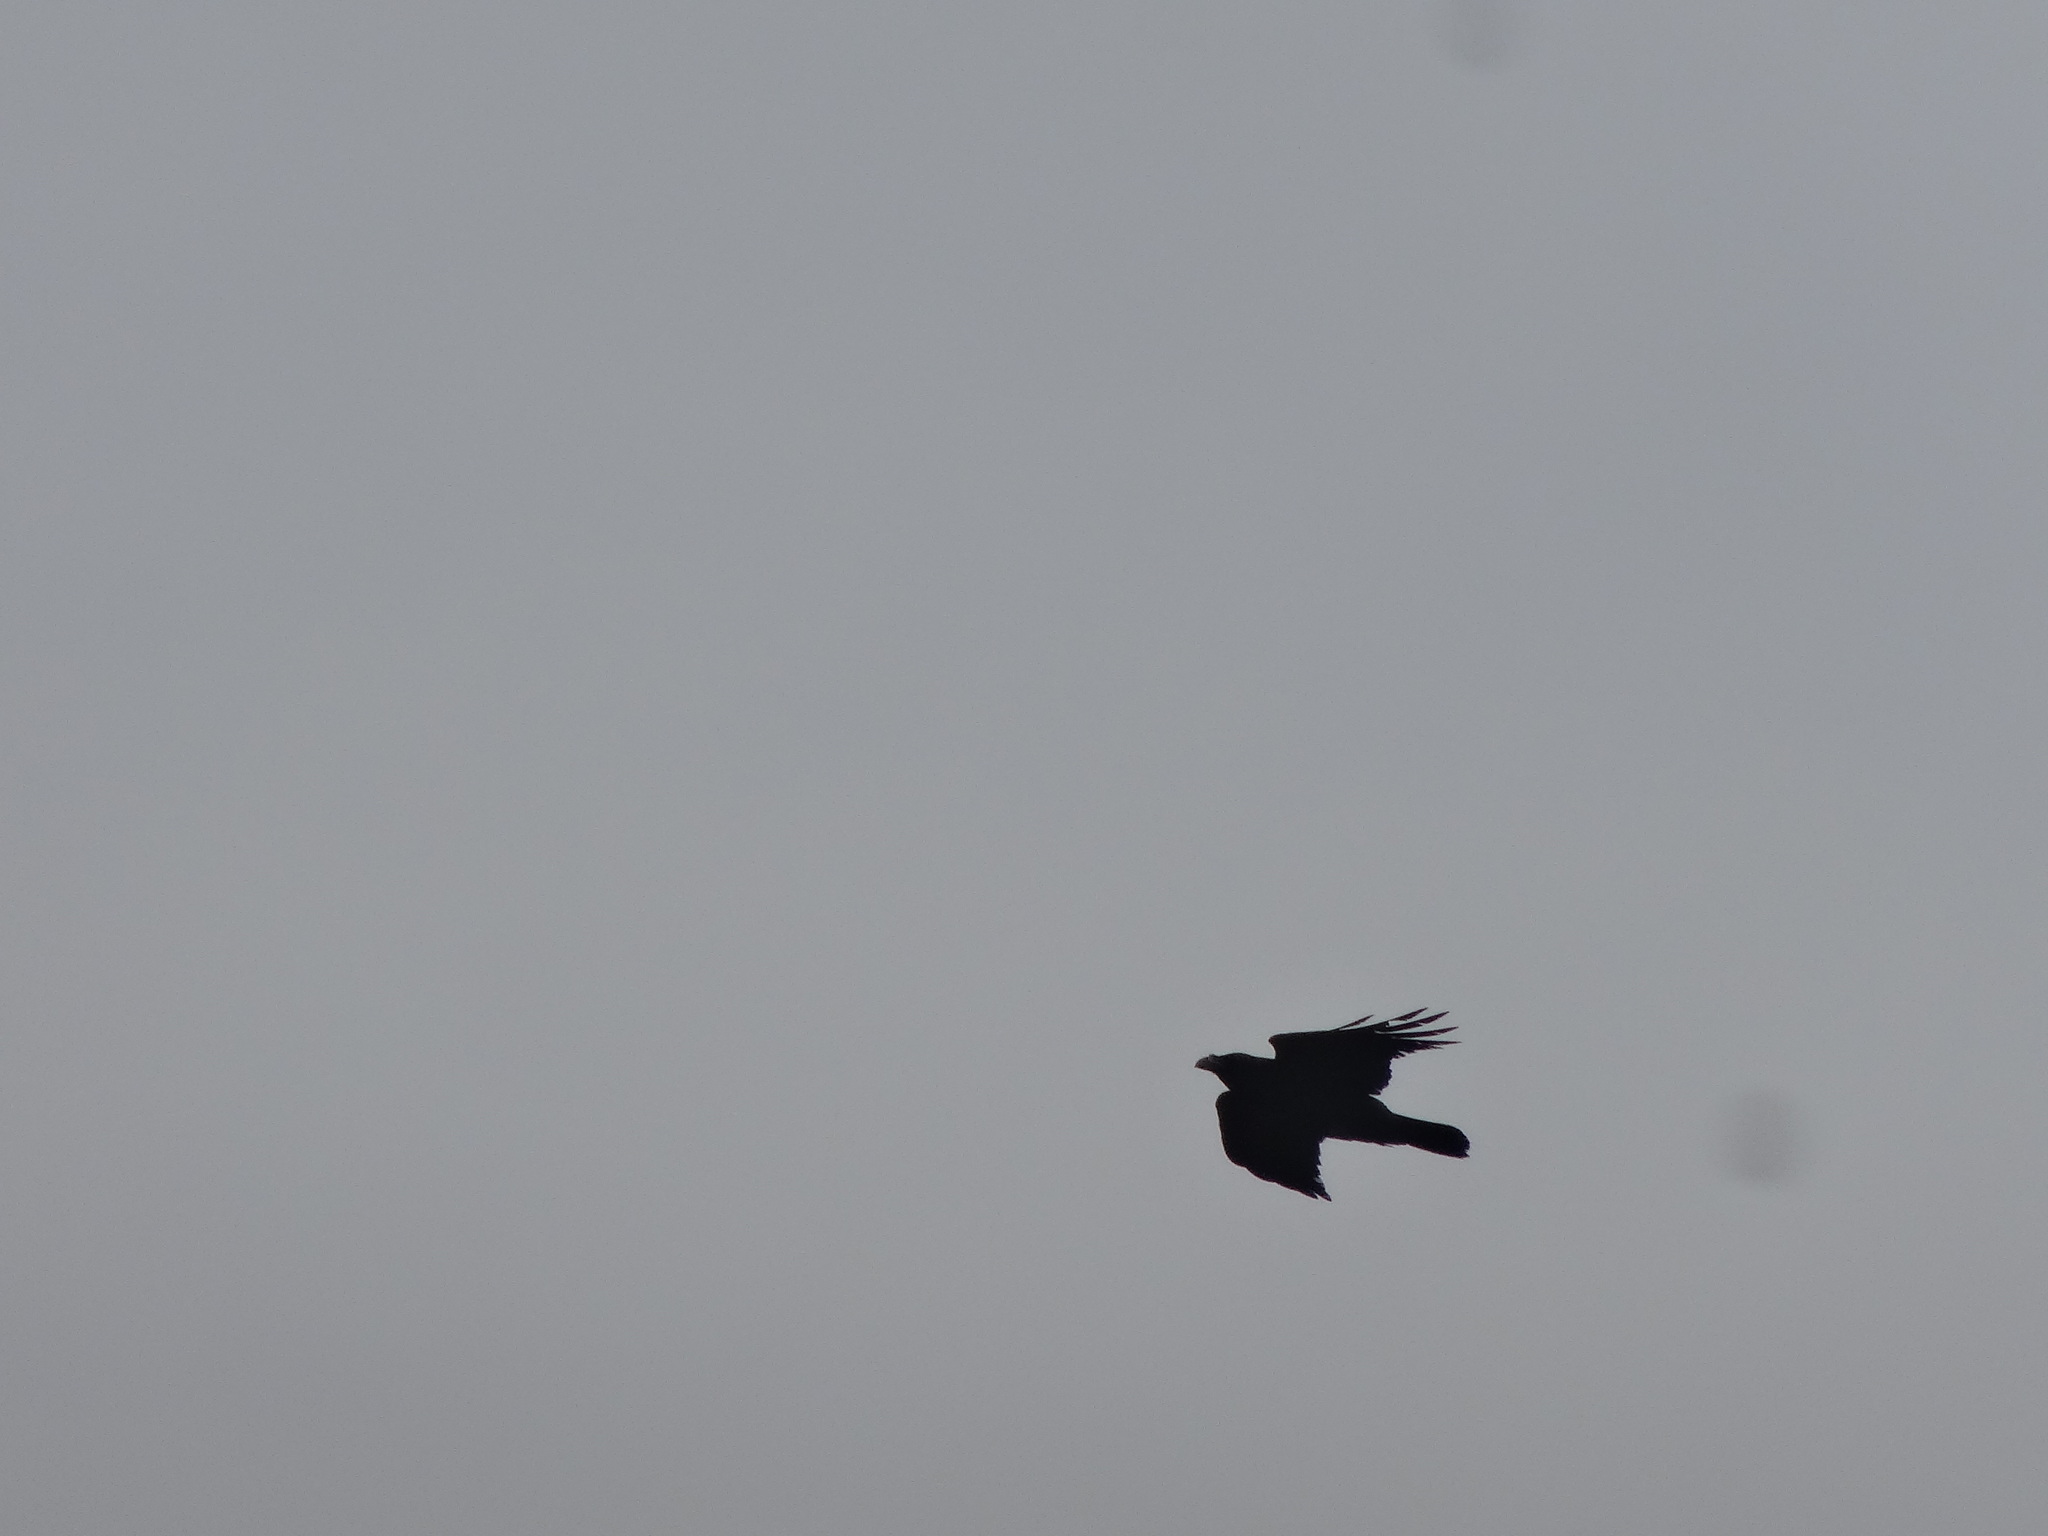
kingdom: Animalia
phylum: Chordata
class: Aves
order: Passeriformes
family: Corvidae
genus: Corvus
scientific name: Corvus corax
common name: Common raven
